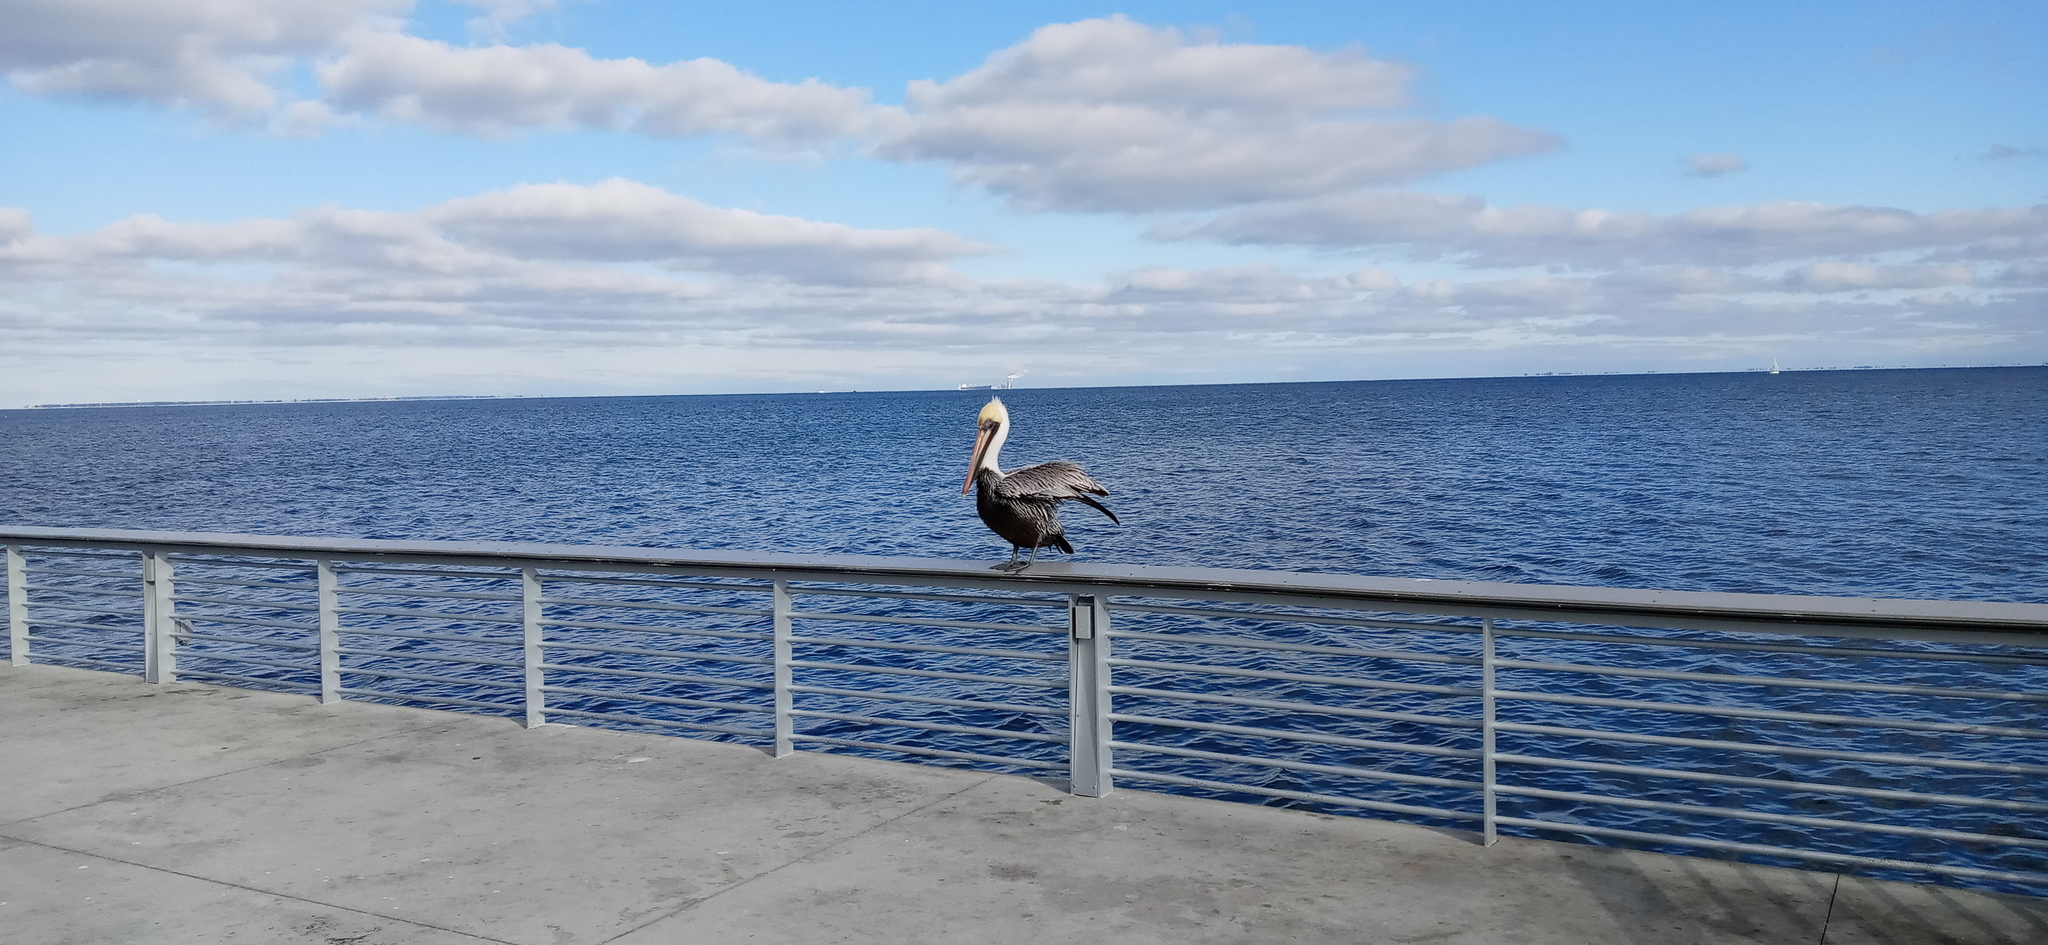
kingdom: Animalia
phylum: Chordata
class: Aves
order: Pelecaniformes
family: Pelecanidae
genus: Pelecanus
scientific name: Pelecanus occidentalis
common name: Brown pelican
